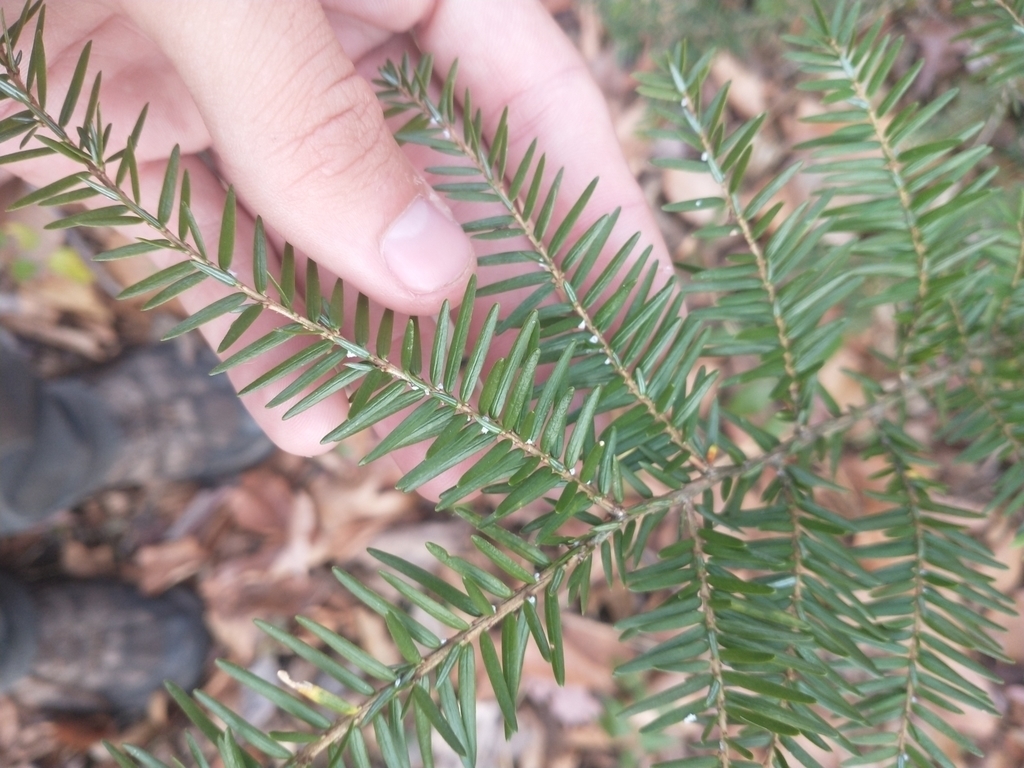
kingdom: Animalia
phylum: Arthropoda
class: Insecta
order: Hemiptera
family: Adelgidae
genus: Adelges
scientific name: Adelges tsugae
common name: Hemlock woolly adelgid
